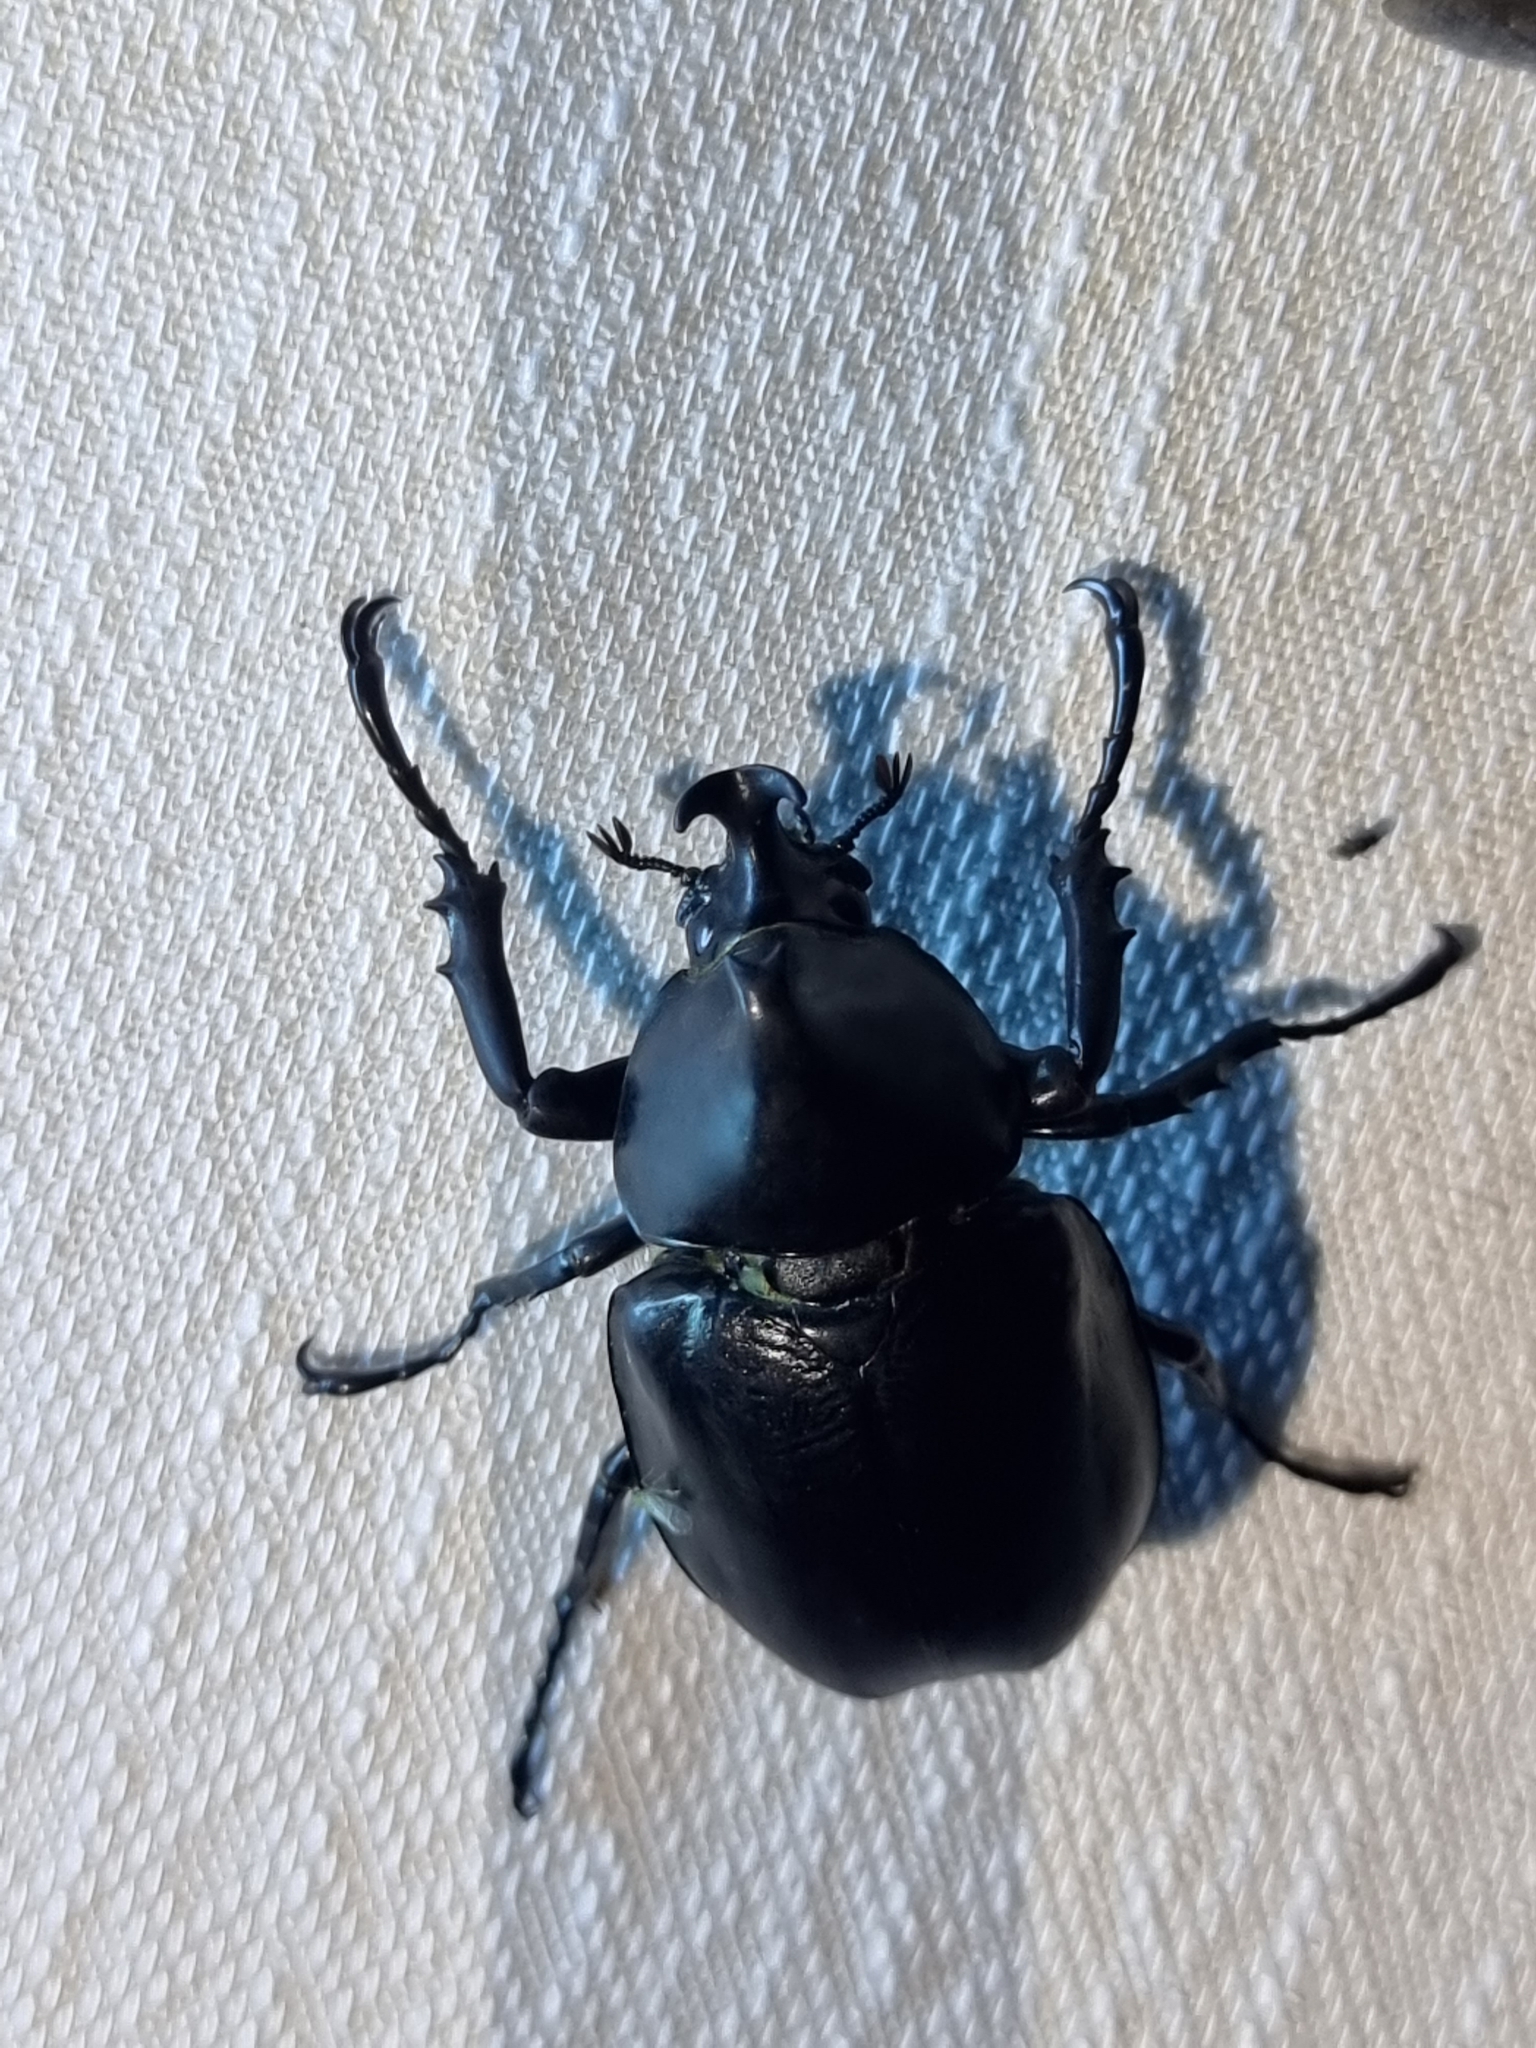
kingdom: Animalia
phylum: Arthropoda
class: Insecta
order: Coleoptera
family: Scarabaeidae
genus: Xylotrupes
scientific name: Xylotrupes australicus
